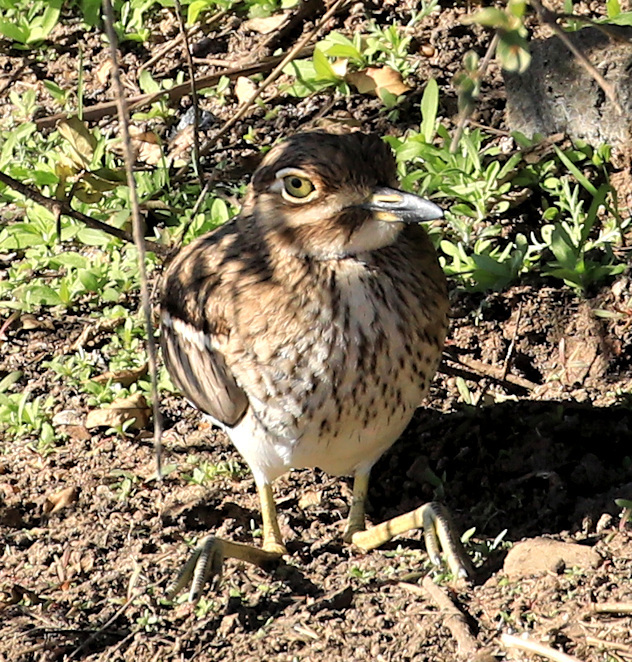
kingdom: Animalia
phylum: Chordata
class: Aves
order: Charadriiformes
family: Burhinidae
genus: Burhinus
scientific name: Burhinus vermiculatus
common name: Water thick-knee
